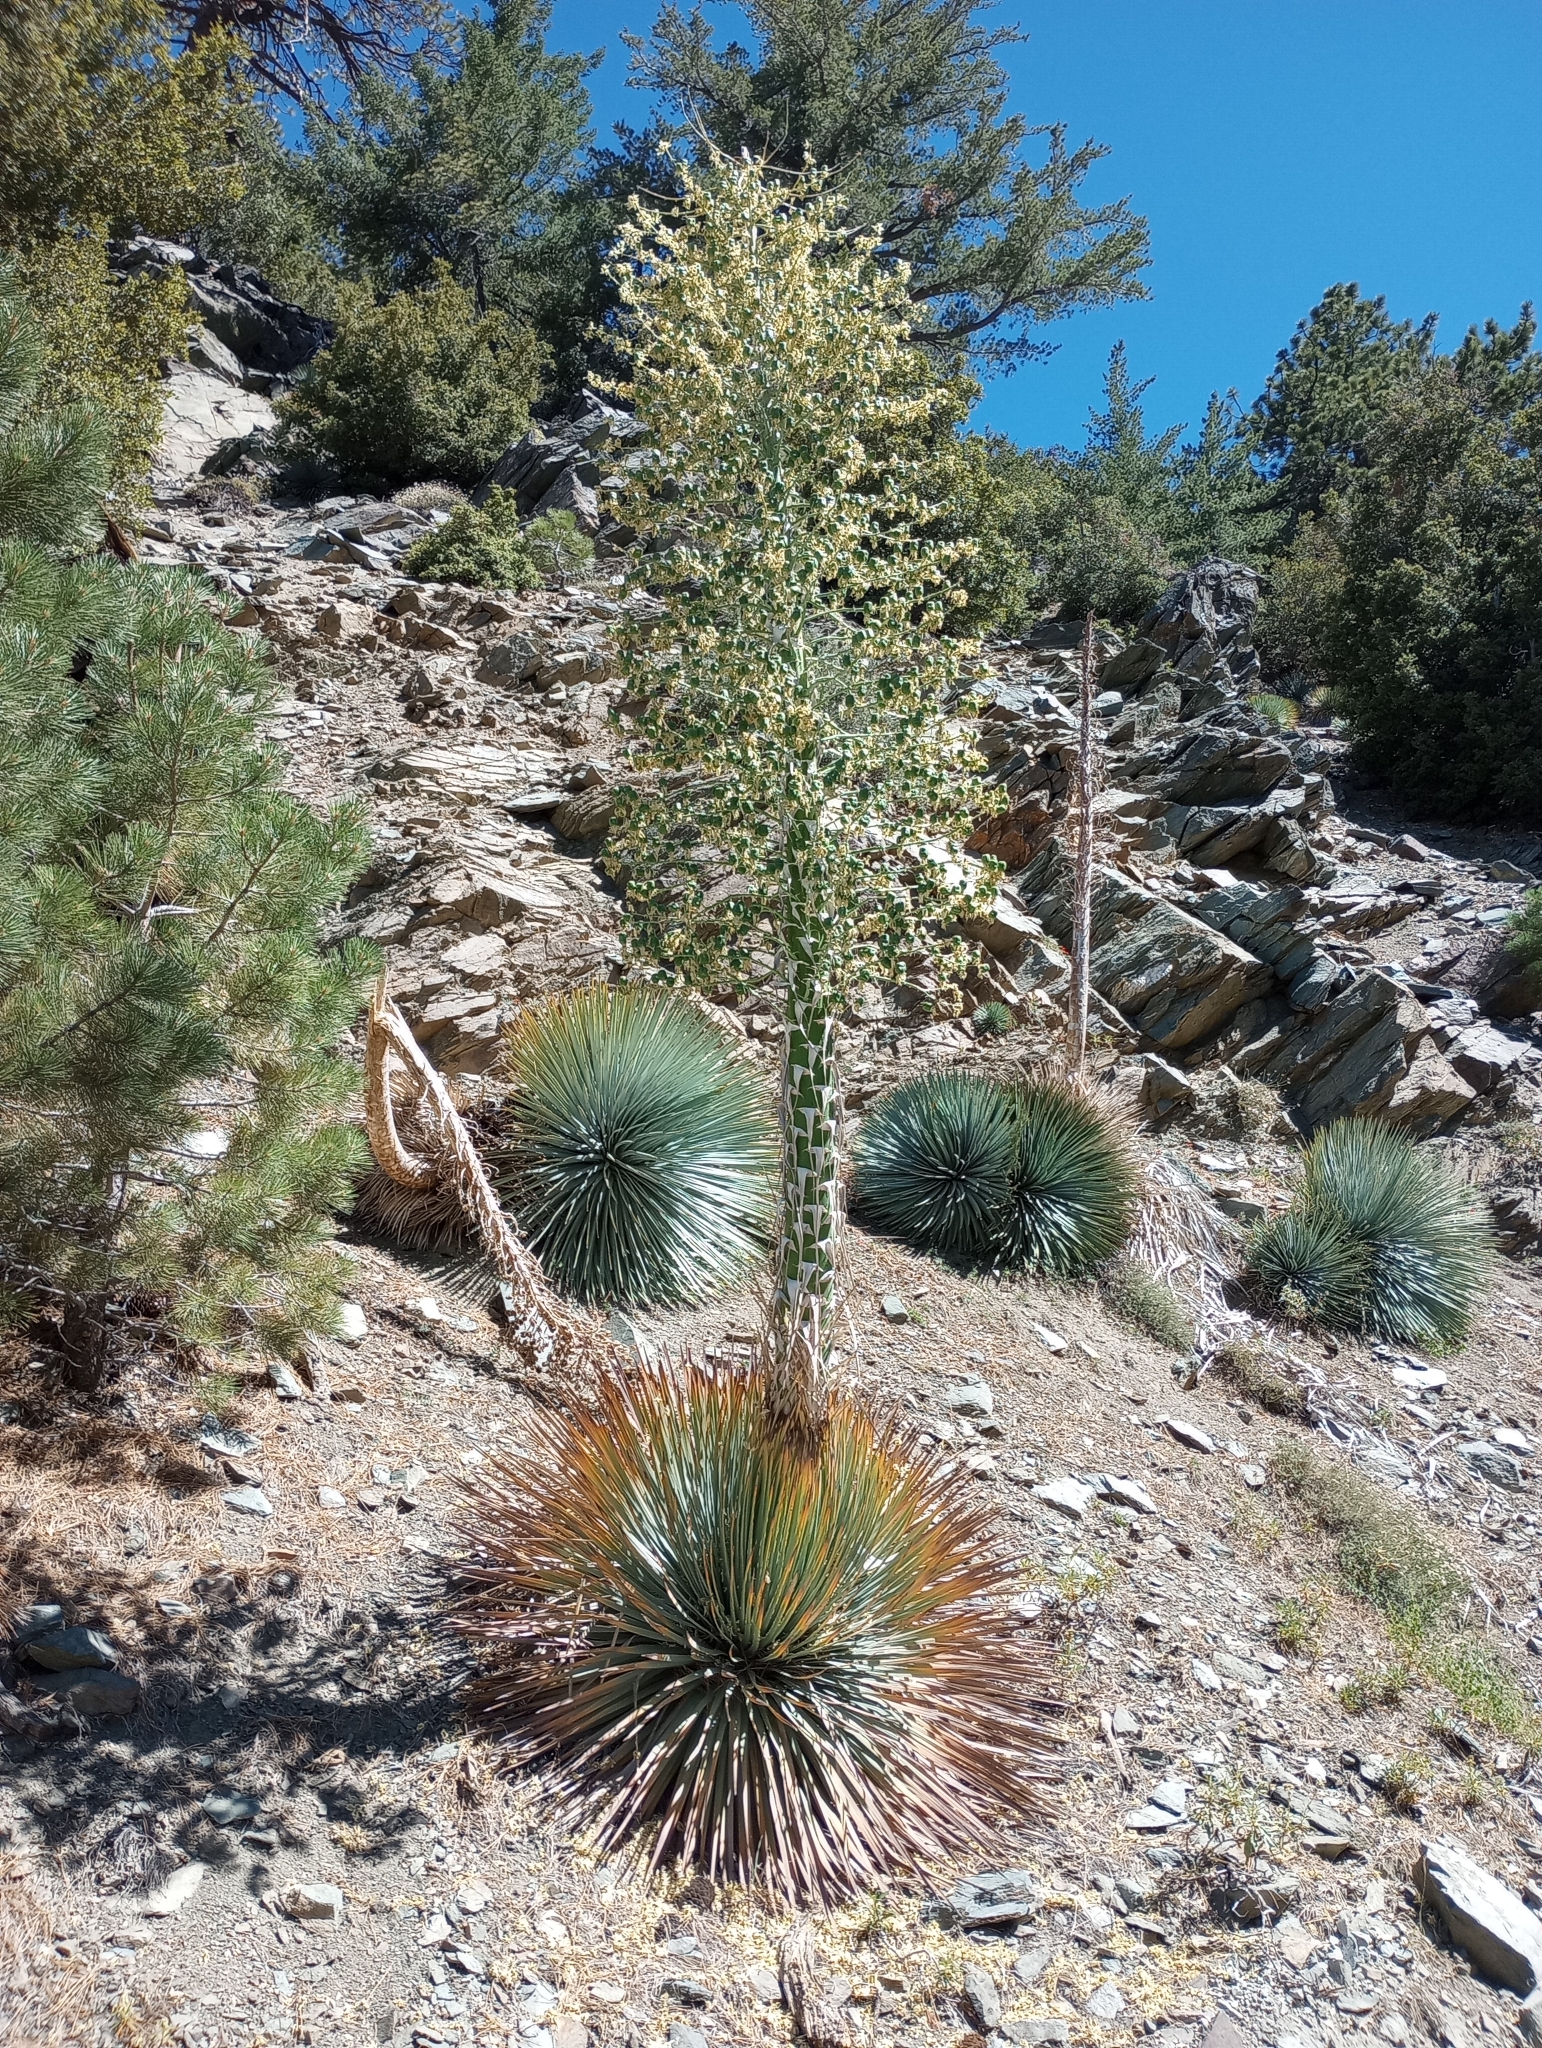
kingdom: Plantae
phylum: Tracheophyta
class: Liliopsida
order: Asparagales
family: Asparagaceae
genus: Hesperoyucca
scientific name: Hesperoyucca whipplei
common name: Our lord's-candle
